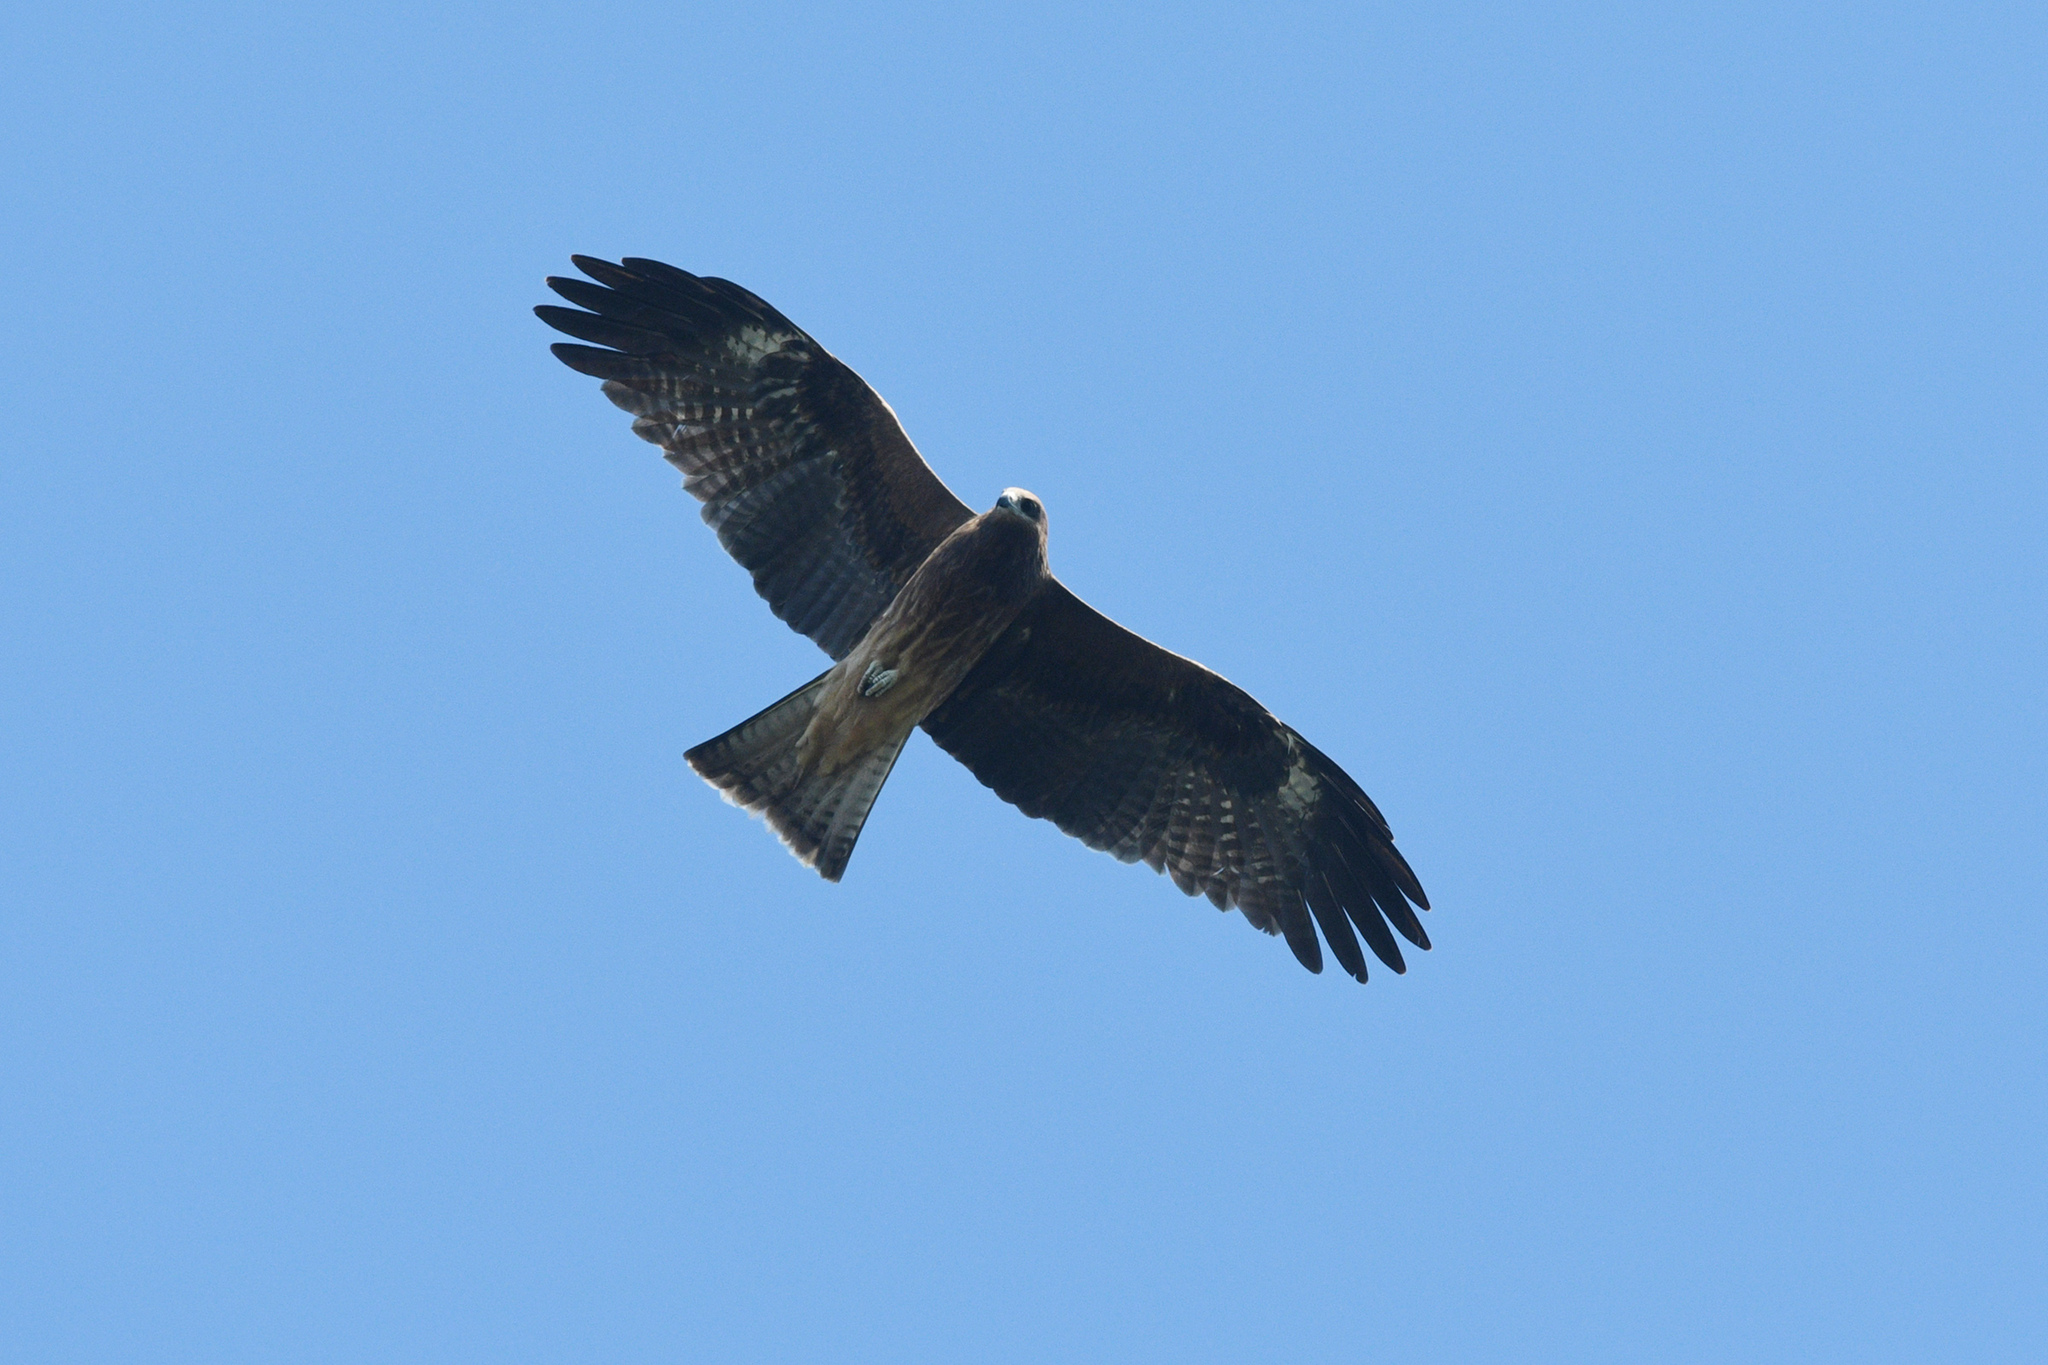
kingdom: Animalia
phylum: Chordata
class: Aves
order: Accipitriformes
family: Accipitridae
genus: Milvus
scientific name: Milvus migrans
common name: Black kite
